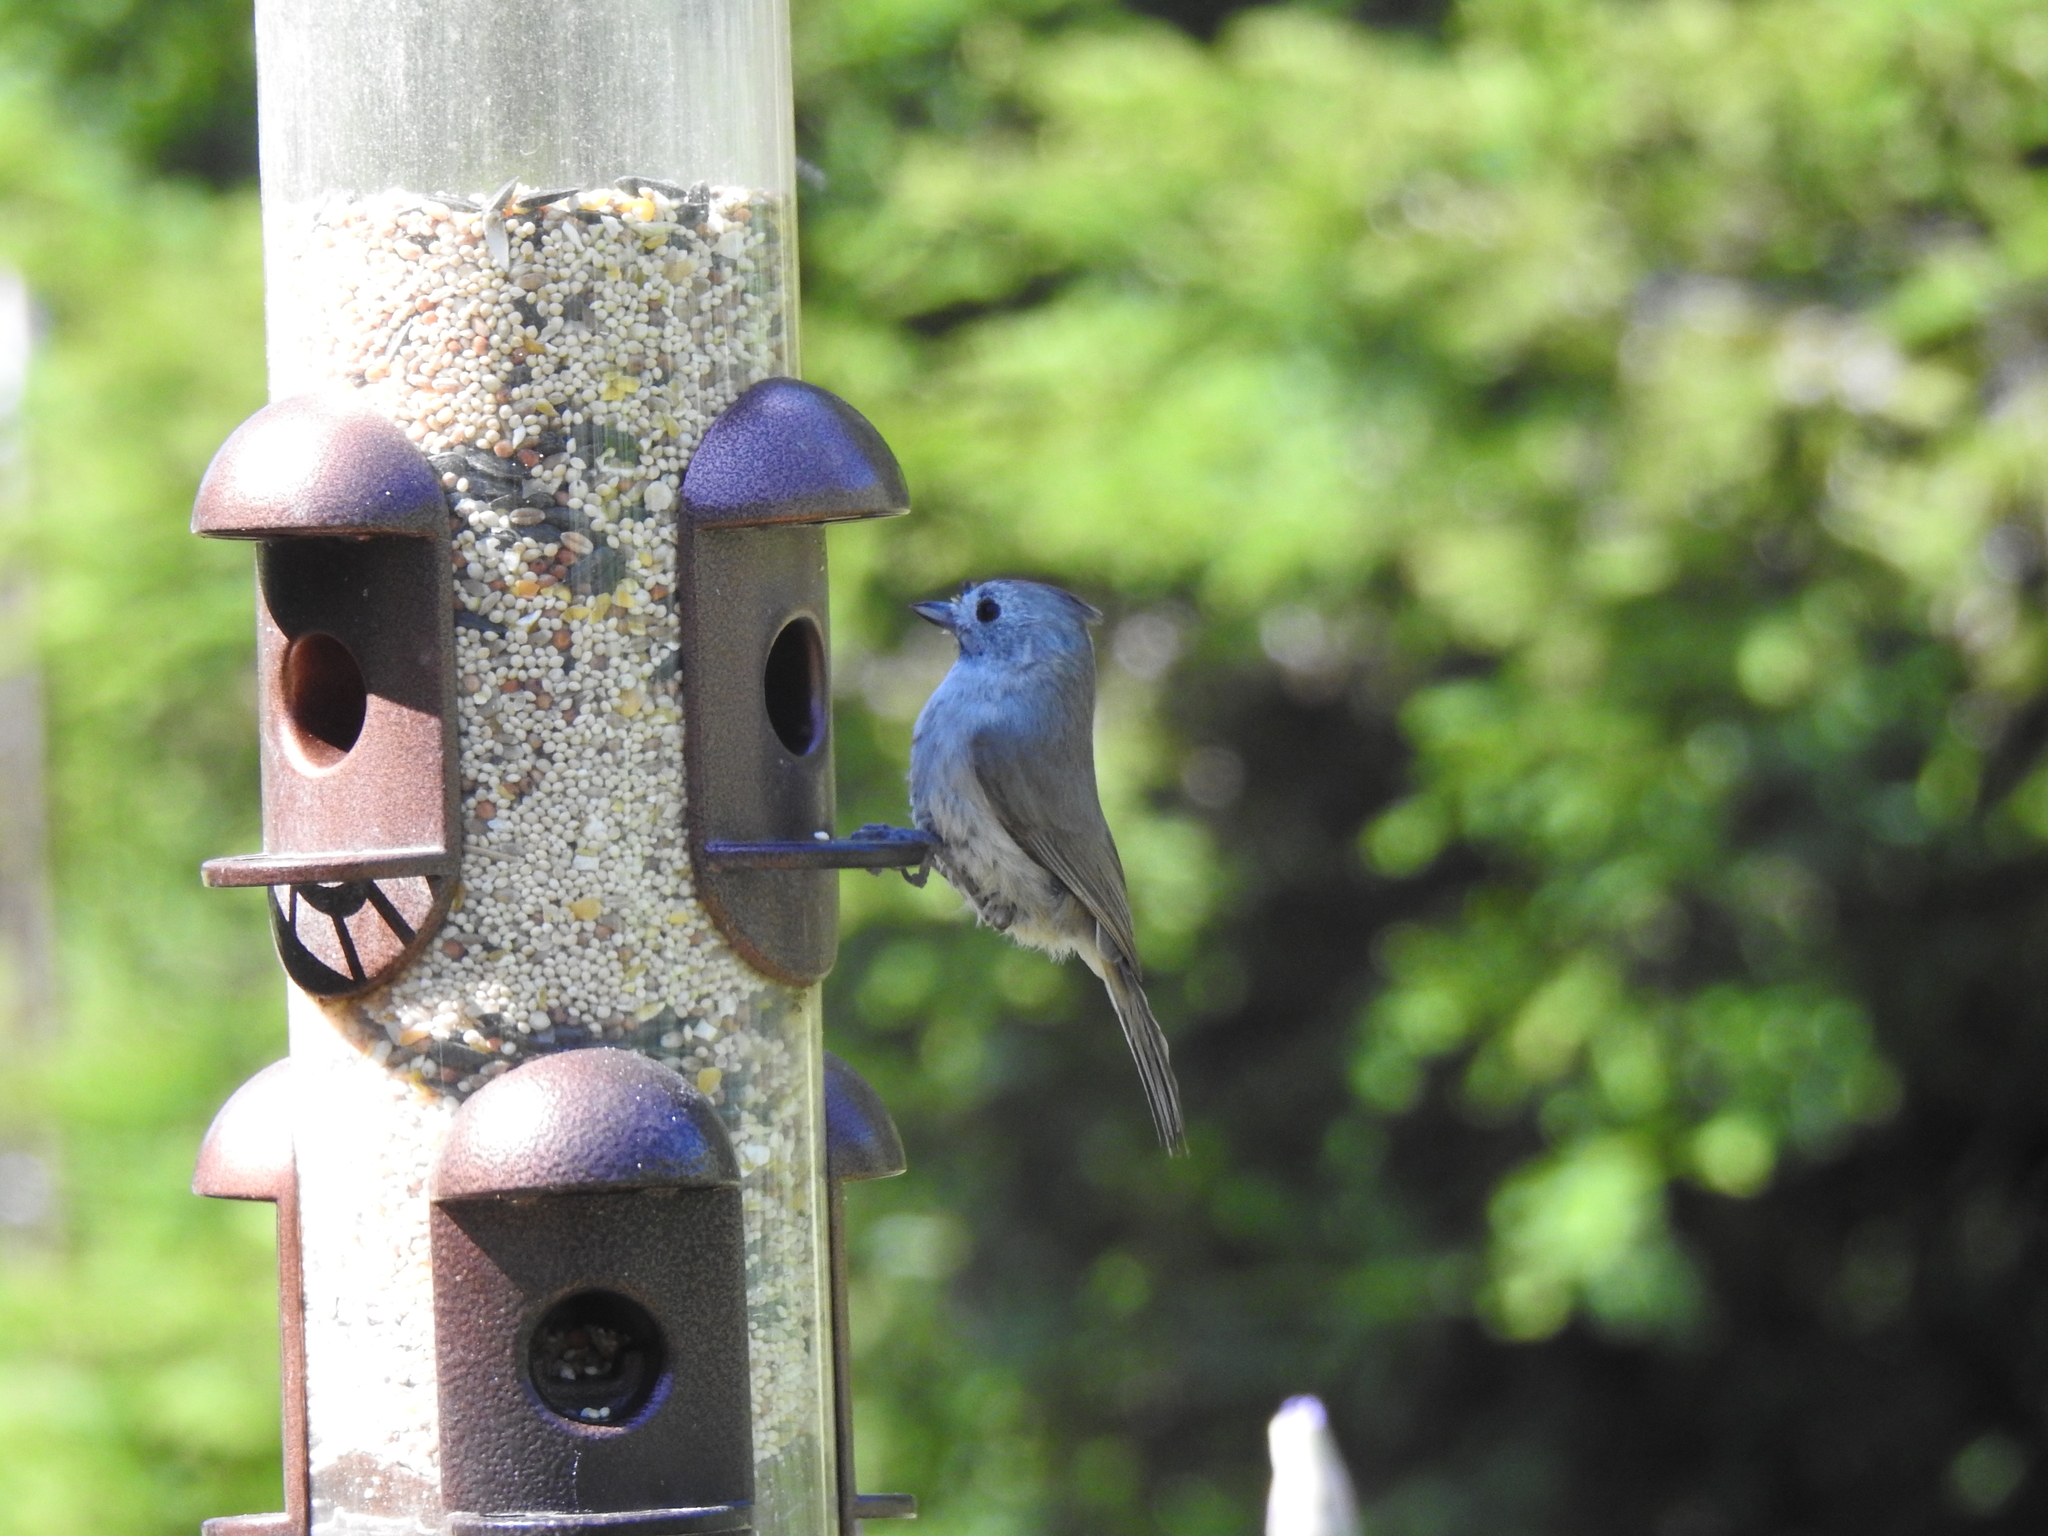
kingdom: Animalia
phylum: Chordata
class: Aves
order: Passeriformes
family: Paridae
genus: Baeolophus
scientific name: Baeolophus inornatus
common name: Oak titmouse
